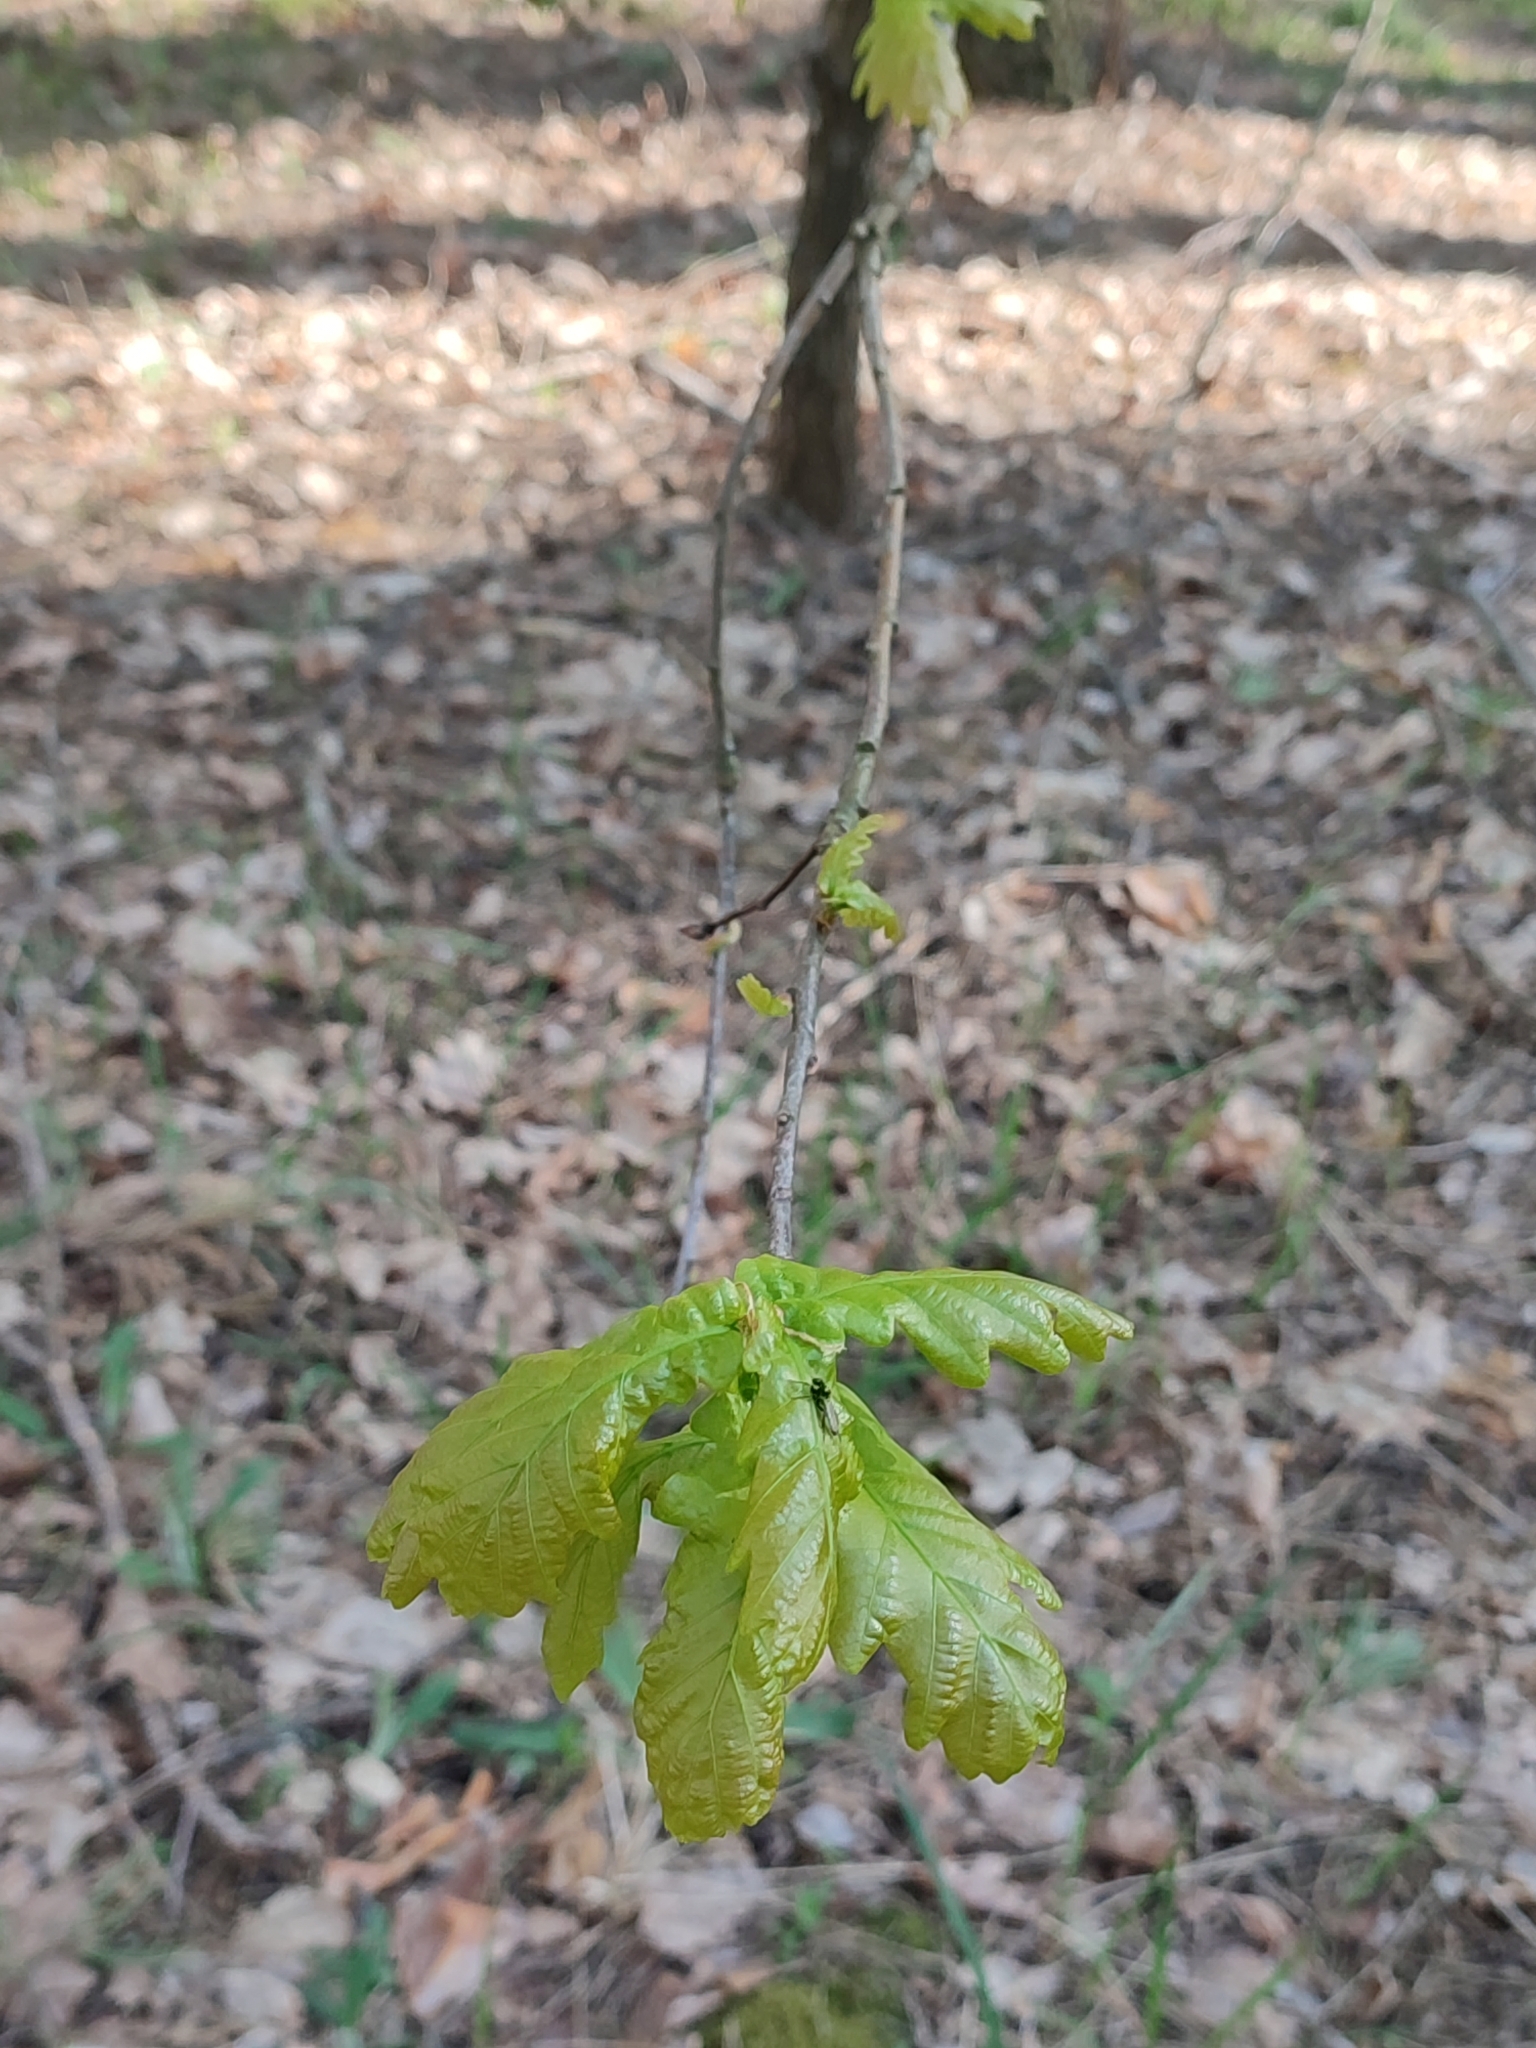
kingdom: Plantae
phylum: Tracheophyta
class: Magnoliopsida
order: Fagales
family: Fagaceae
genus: Quercus
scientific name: Quercus robur
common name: Pedunculate oak
